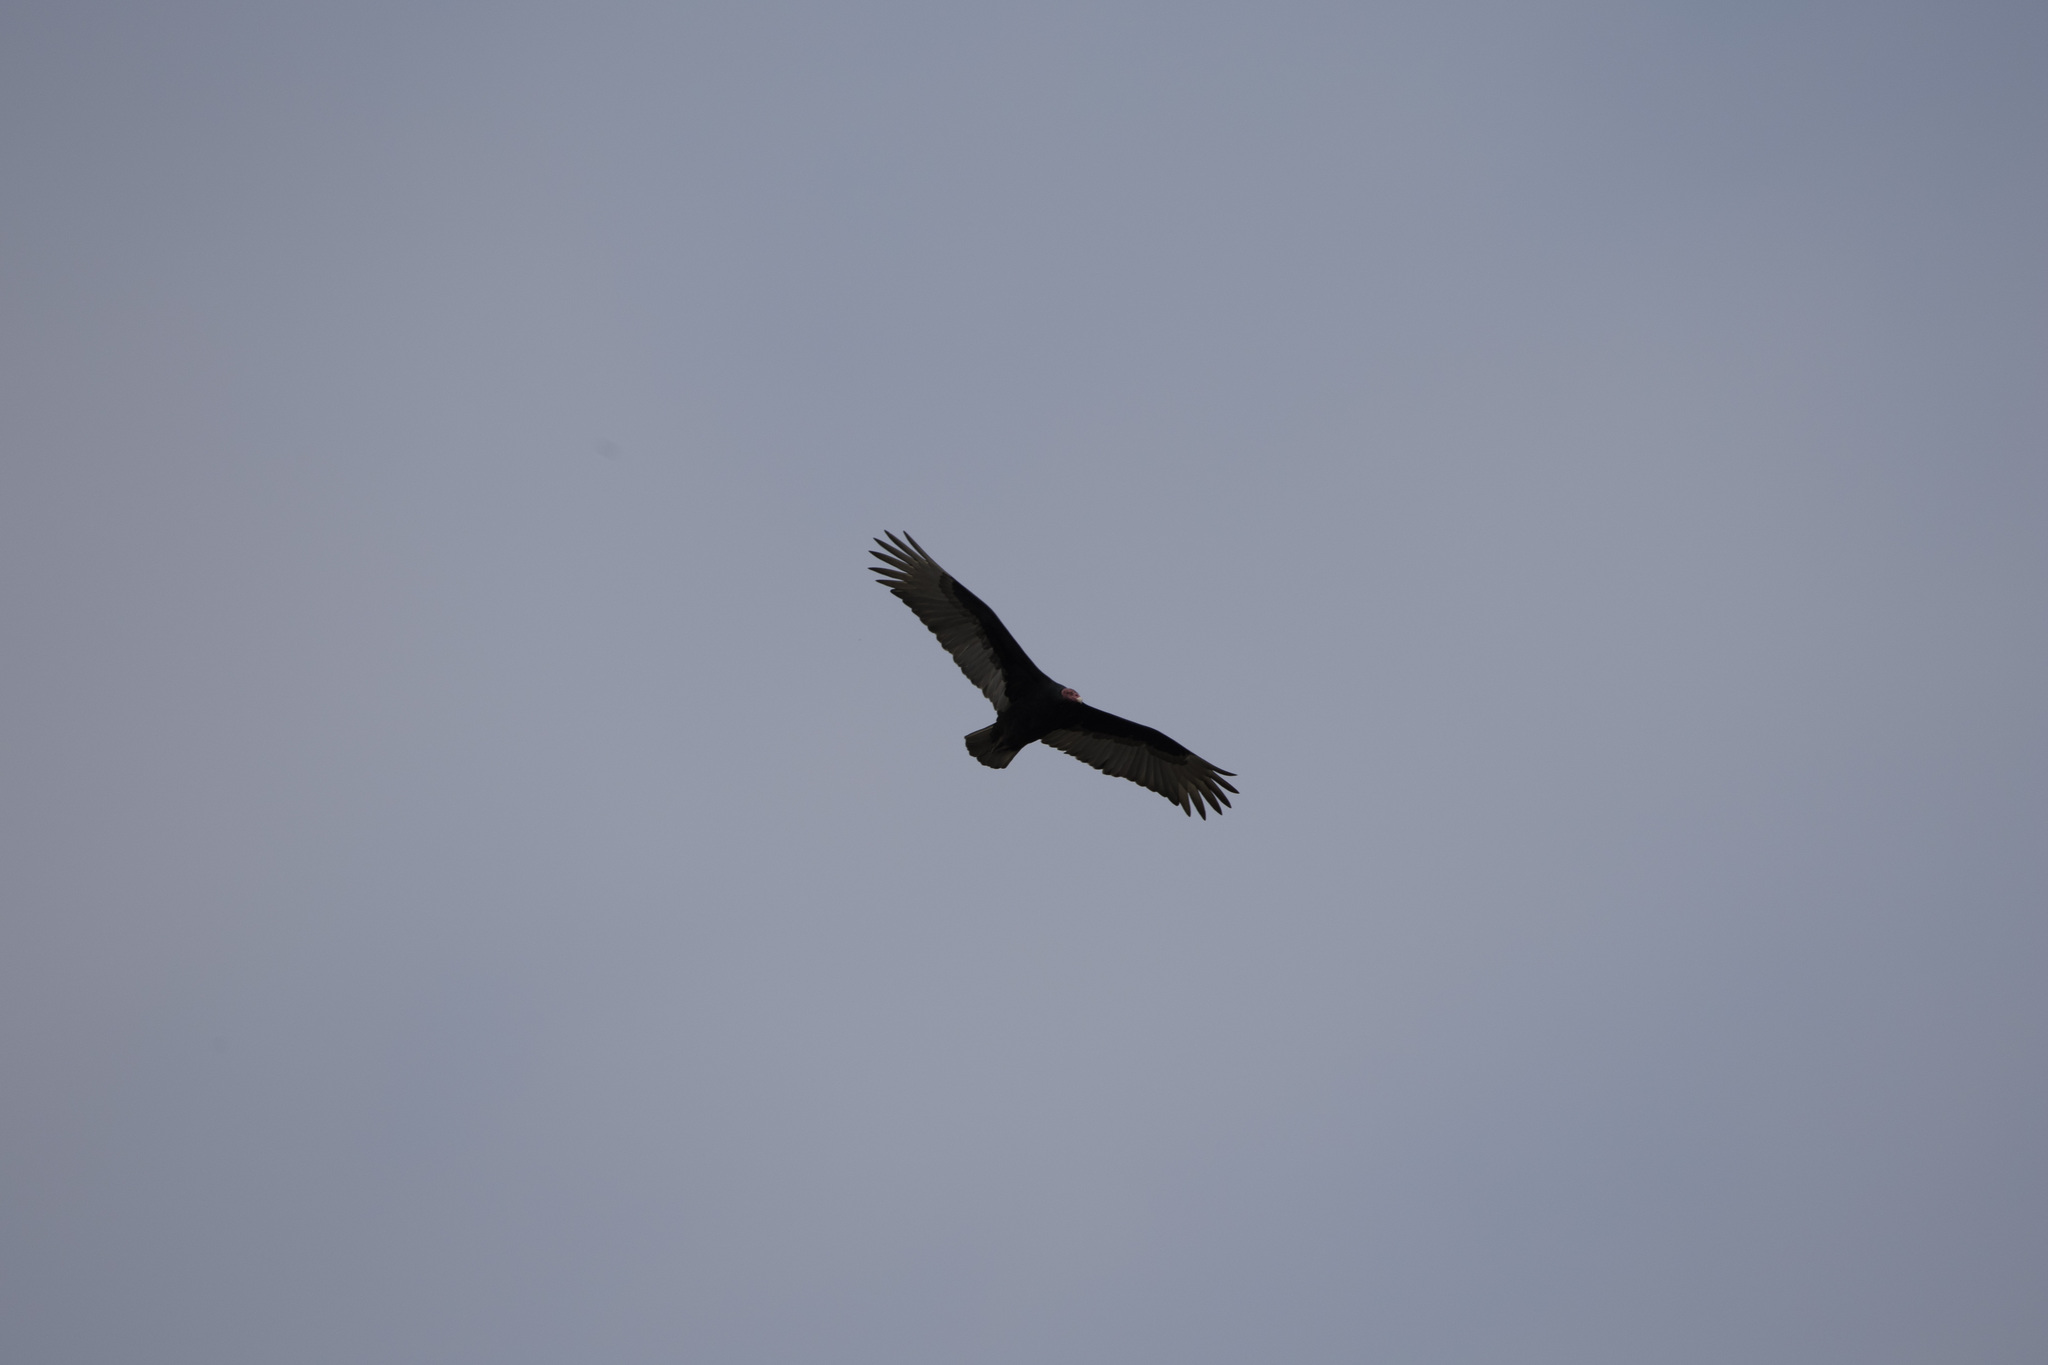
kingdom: Animalia
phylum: Chordata
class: Aves
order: Accipitriformes
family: Cathartidae
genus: Cathartes
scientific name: Cathartes aura
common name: Turkey vulture
